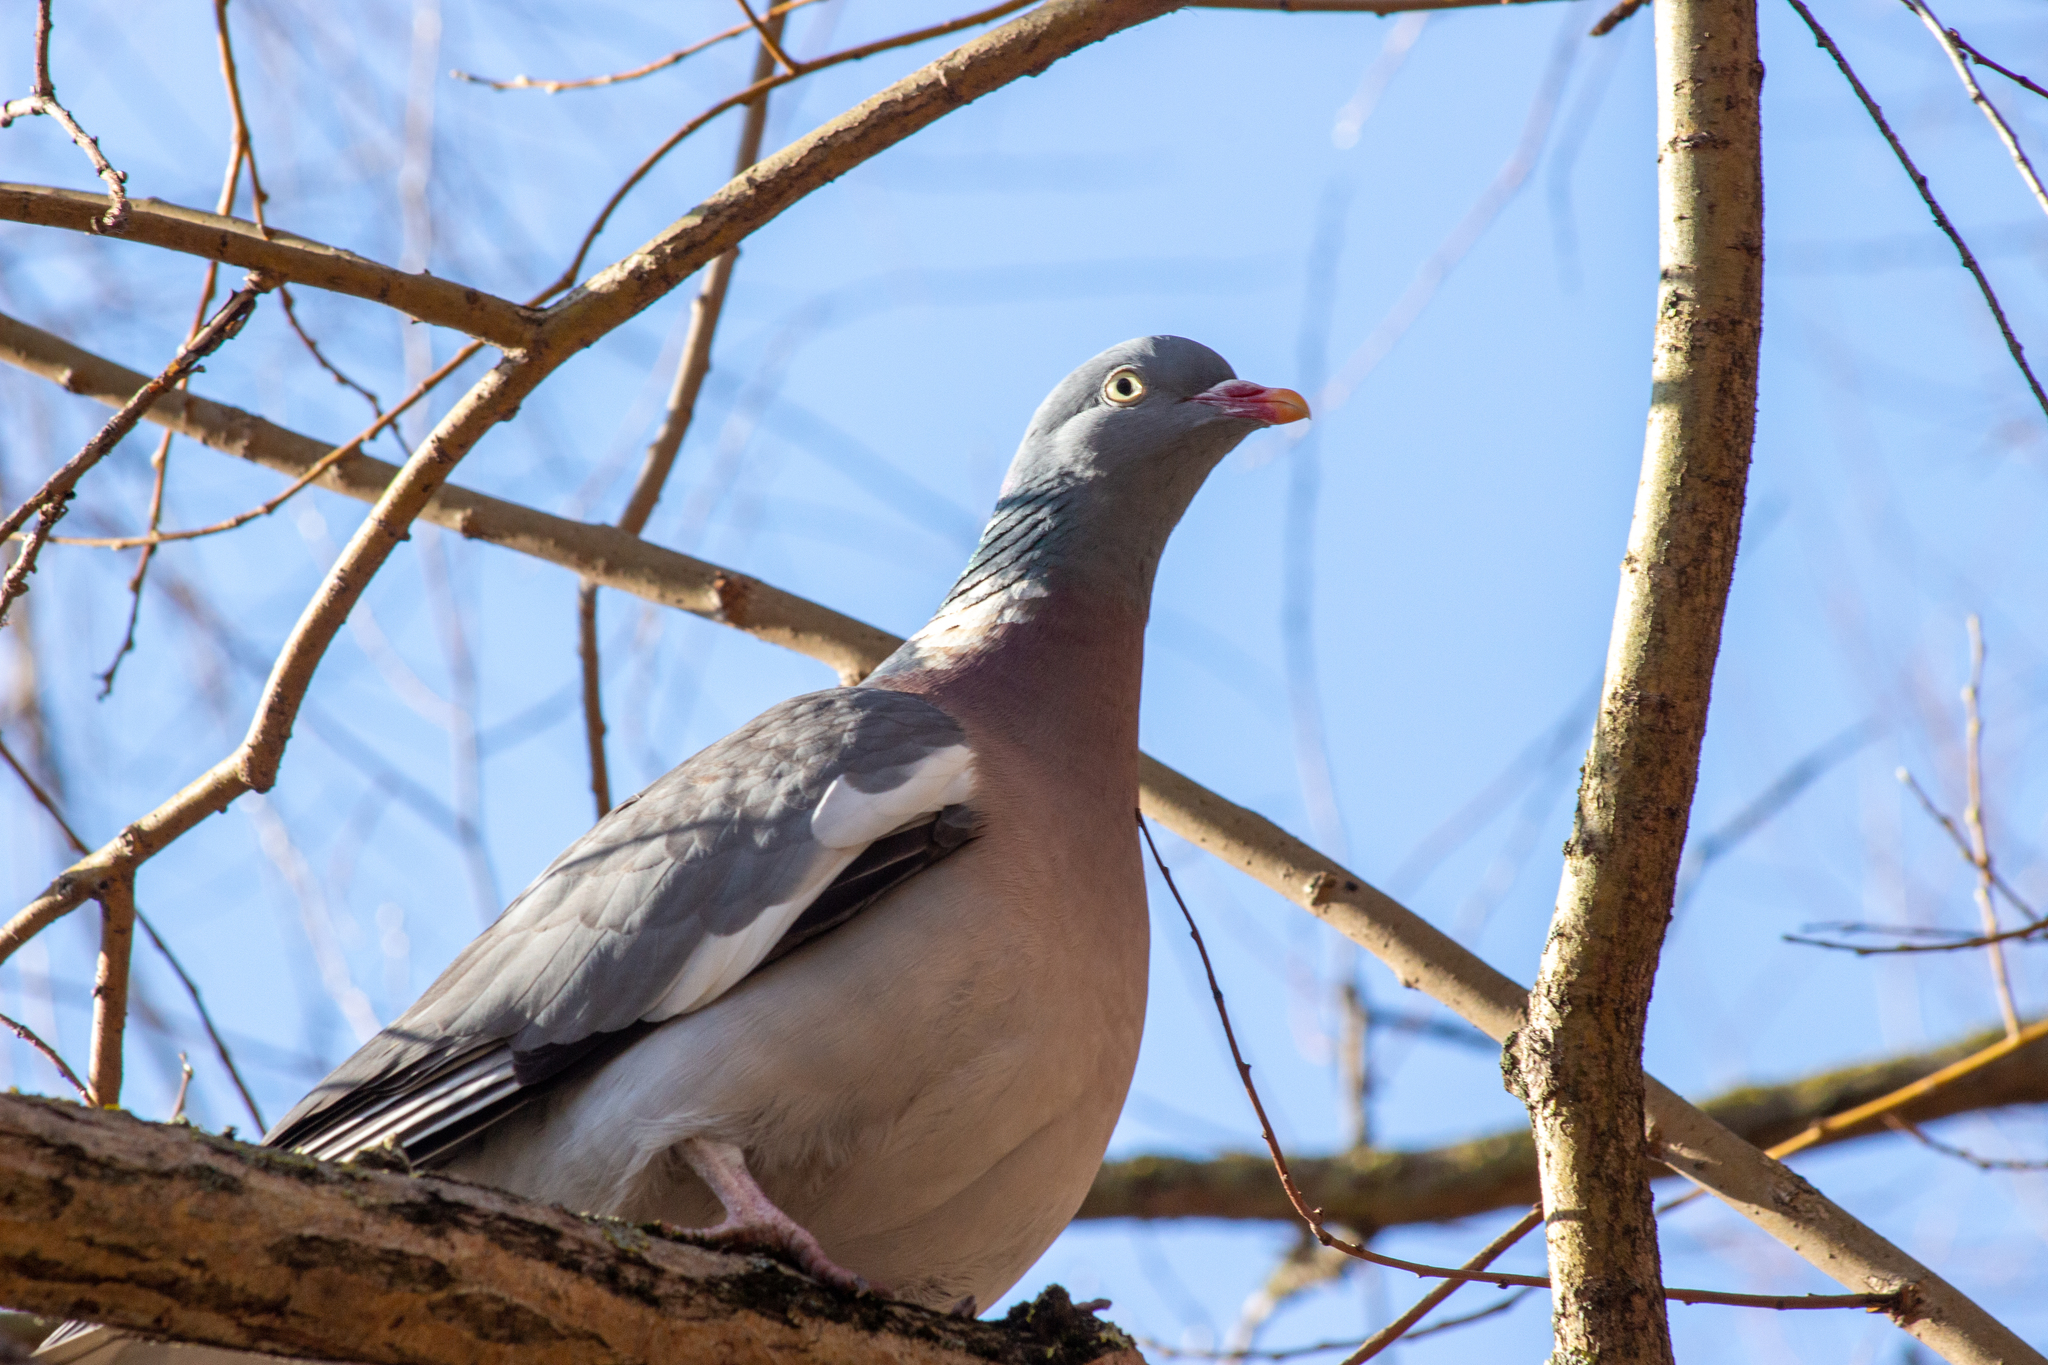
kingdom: Animalia
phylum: Chordata
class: Aves
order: Columbiformes
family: Columbidae
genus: Columba
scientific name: Columba palumbus
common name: Common wood pigeon
